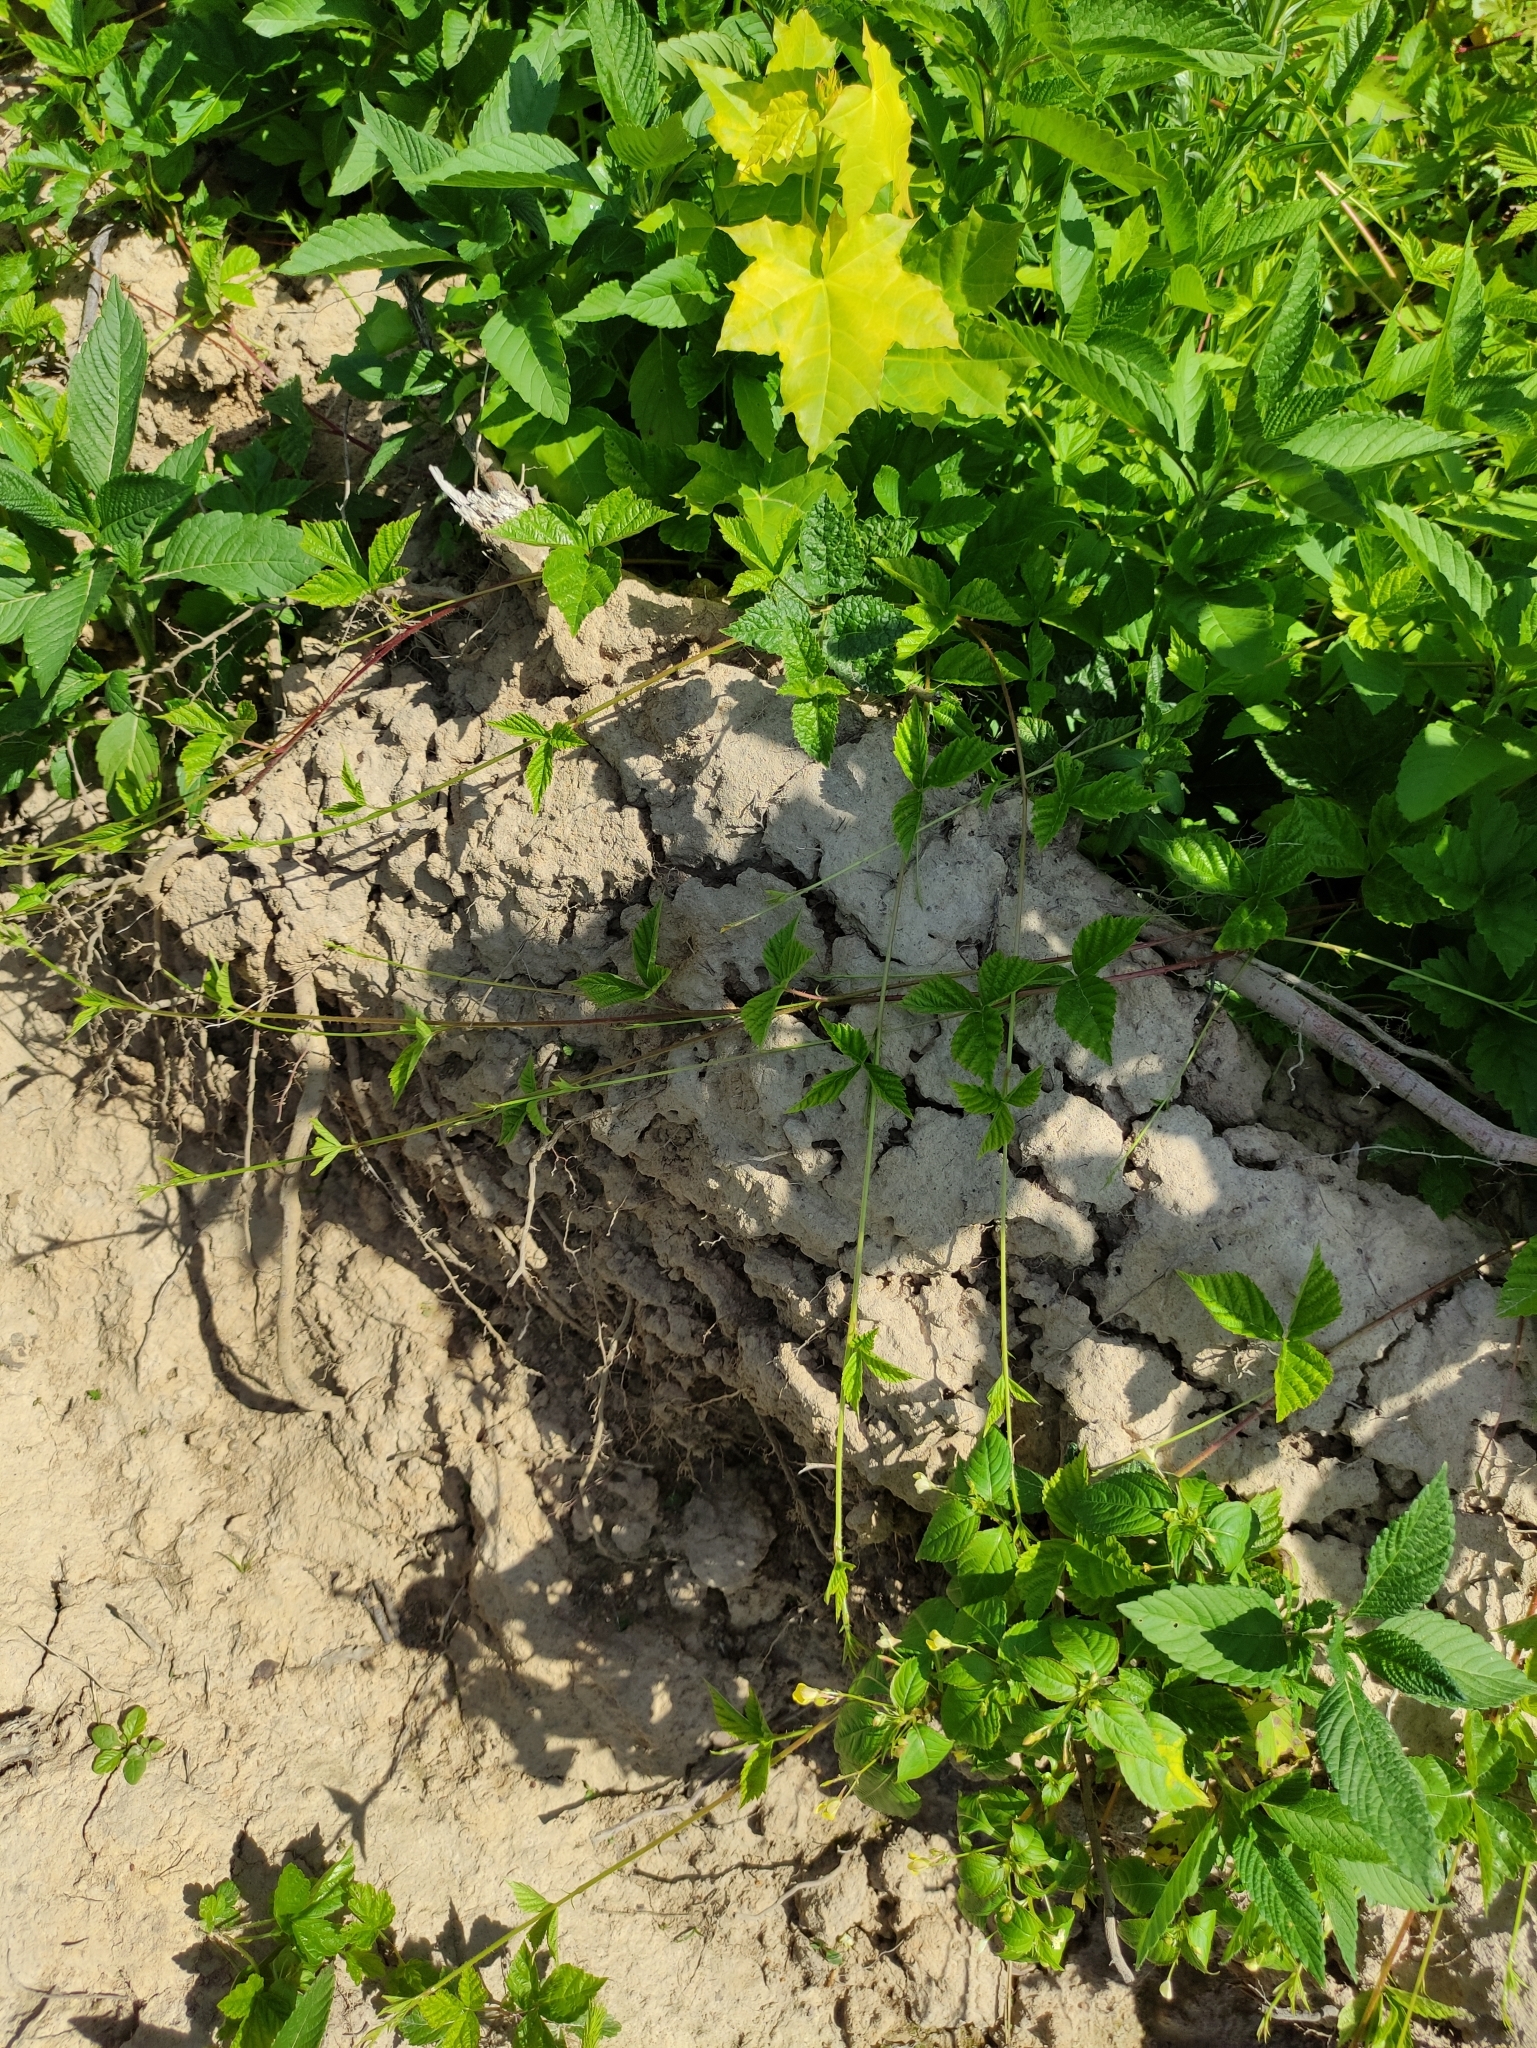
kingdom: Plantae
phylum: Tracheophyta
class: Magnoliopsida
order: Rosales
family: Rosaceae
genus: Rubus
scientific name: Rubus saxatilis
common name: Stone bramble
